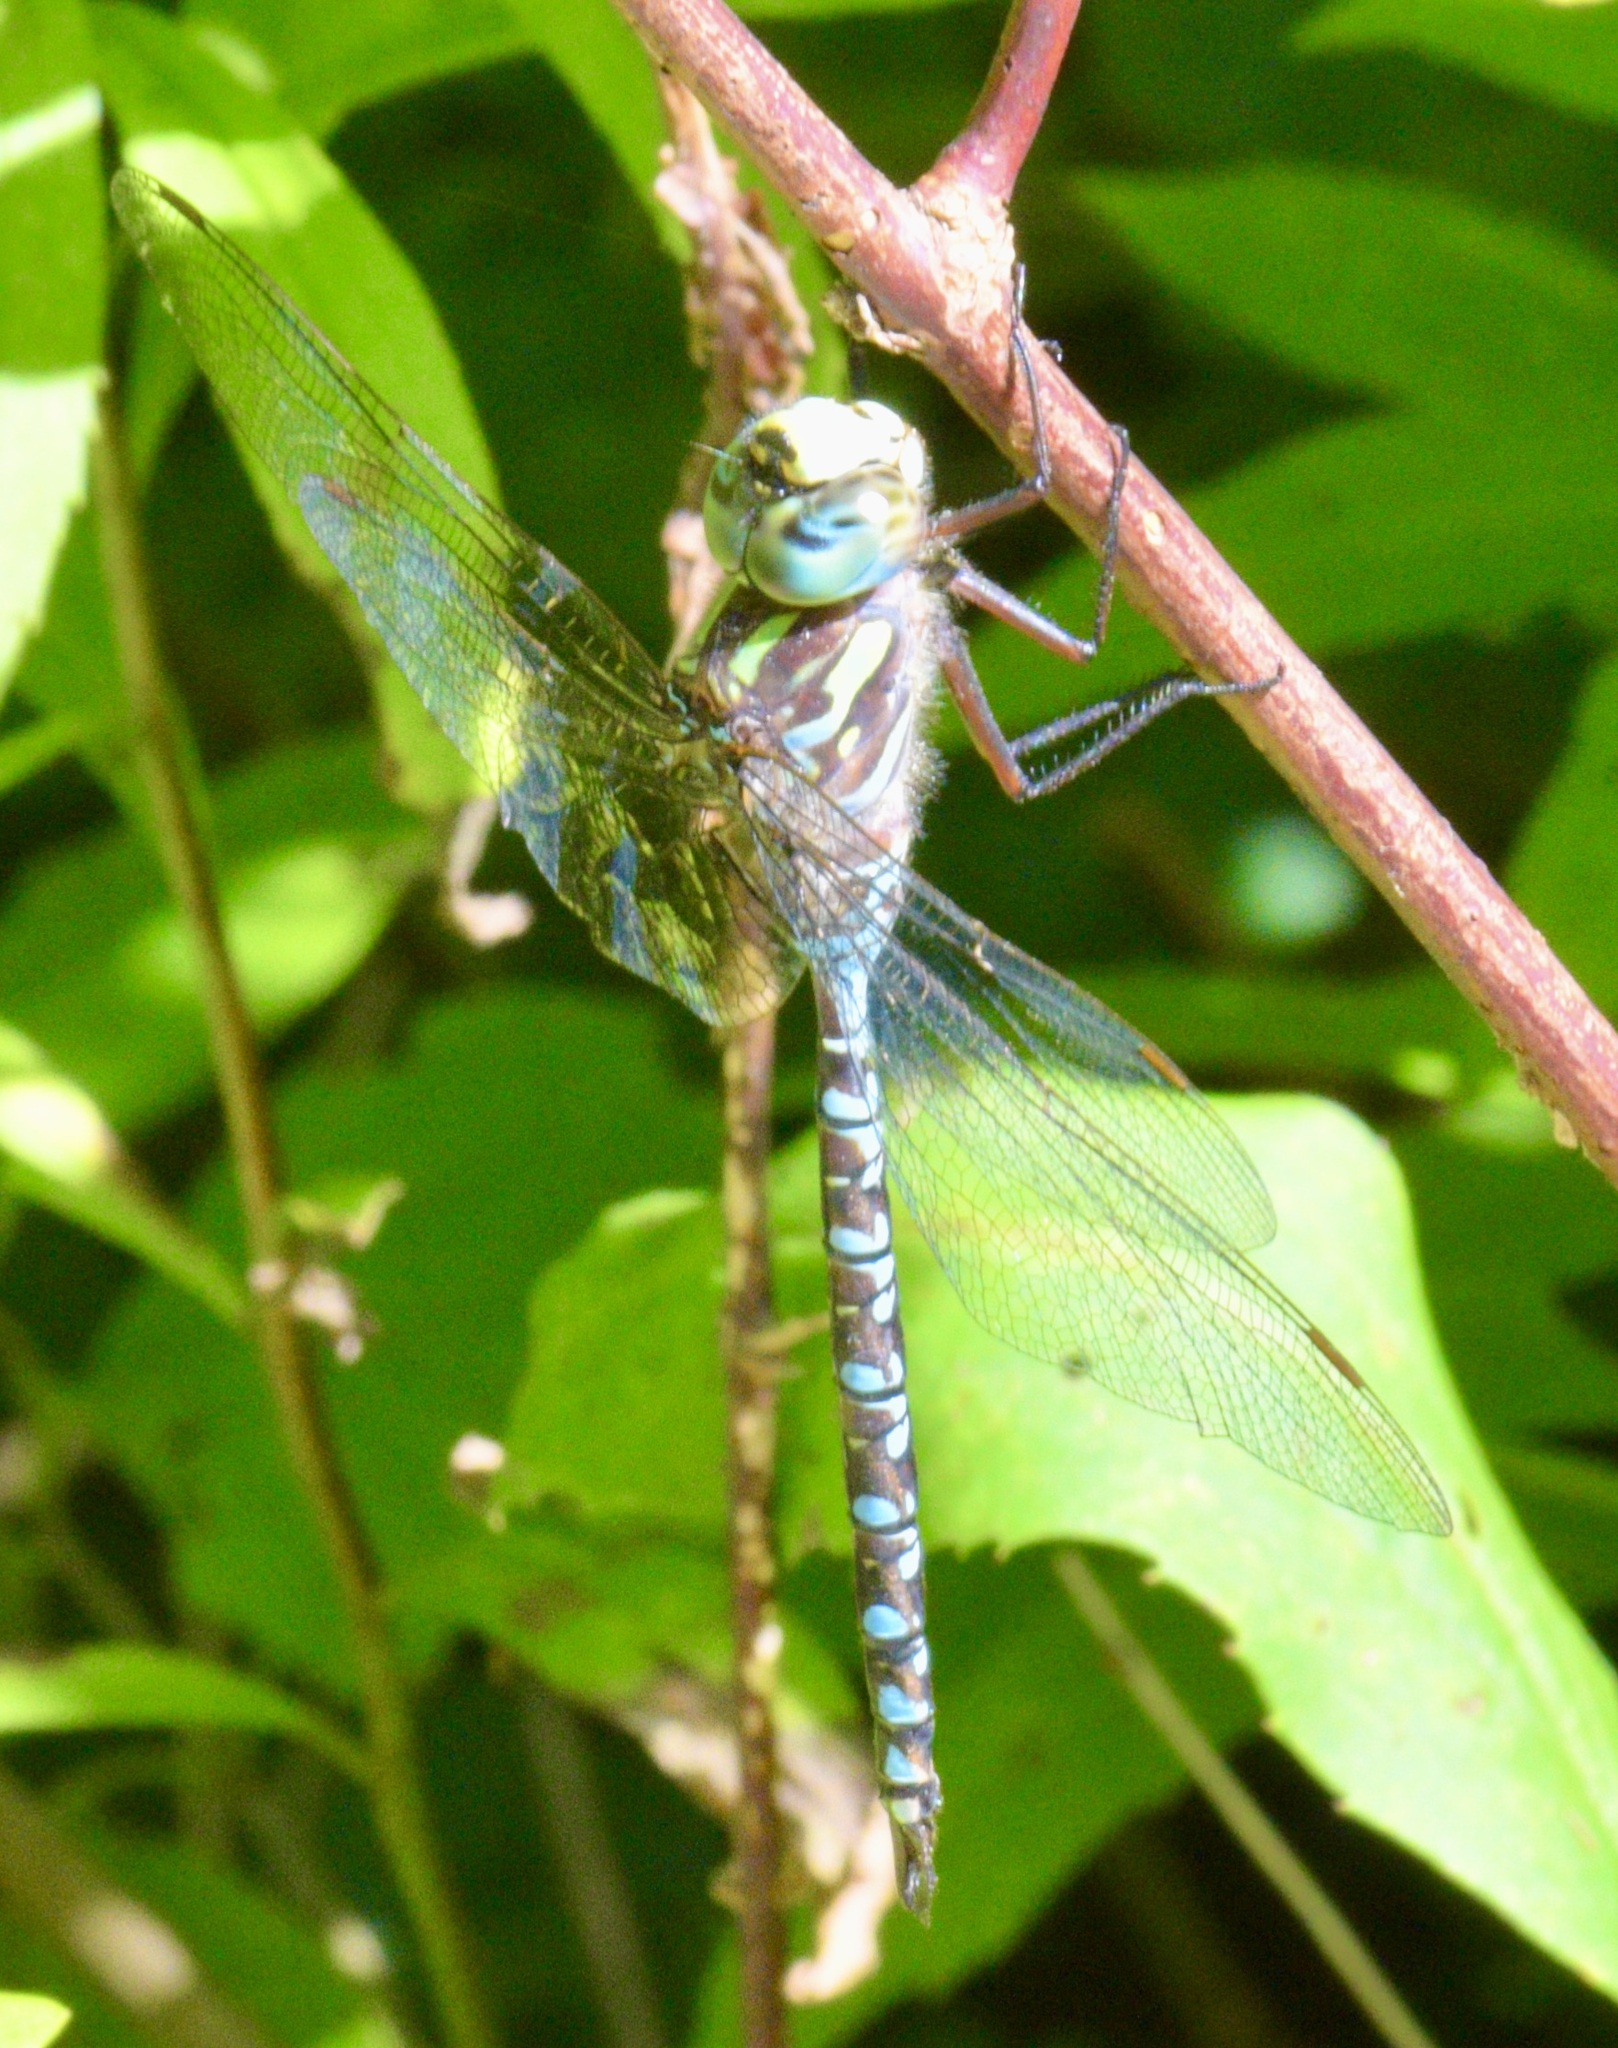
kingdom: Animalia
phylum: Arthropoda
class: Insecta
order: Odonata
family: Aeshnidae
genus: Aeshna
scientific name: Aeshna canadensis
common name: Canada darner
